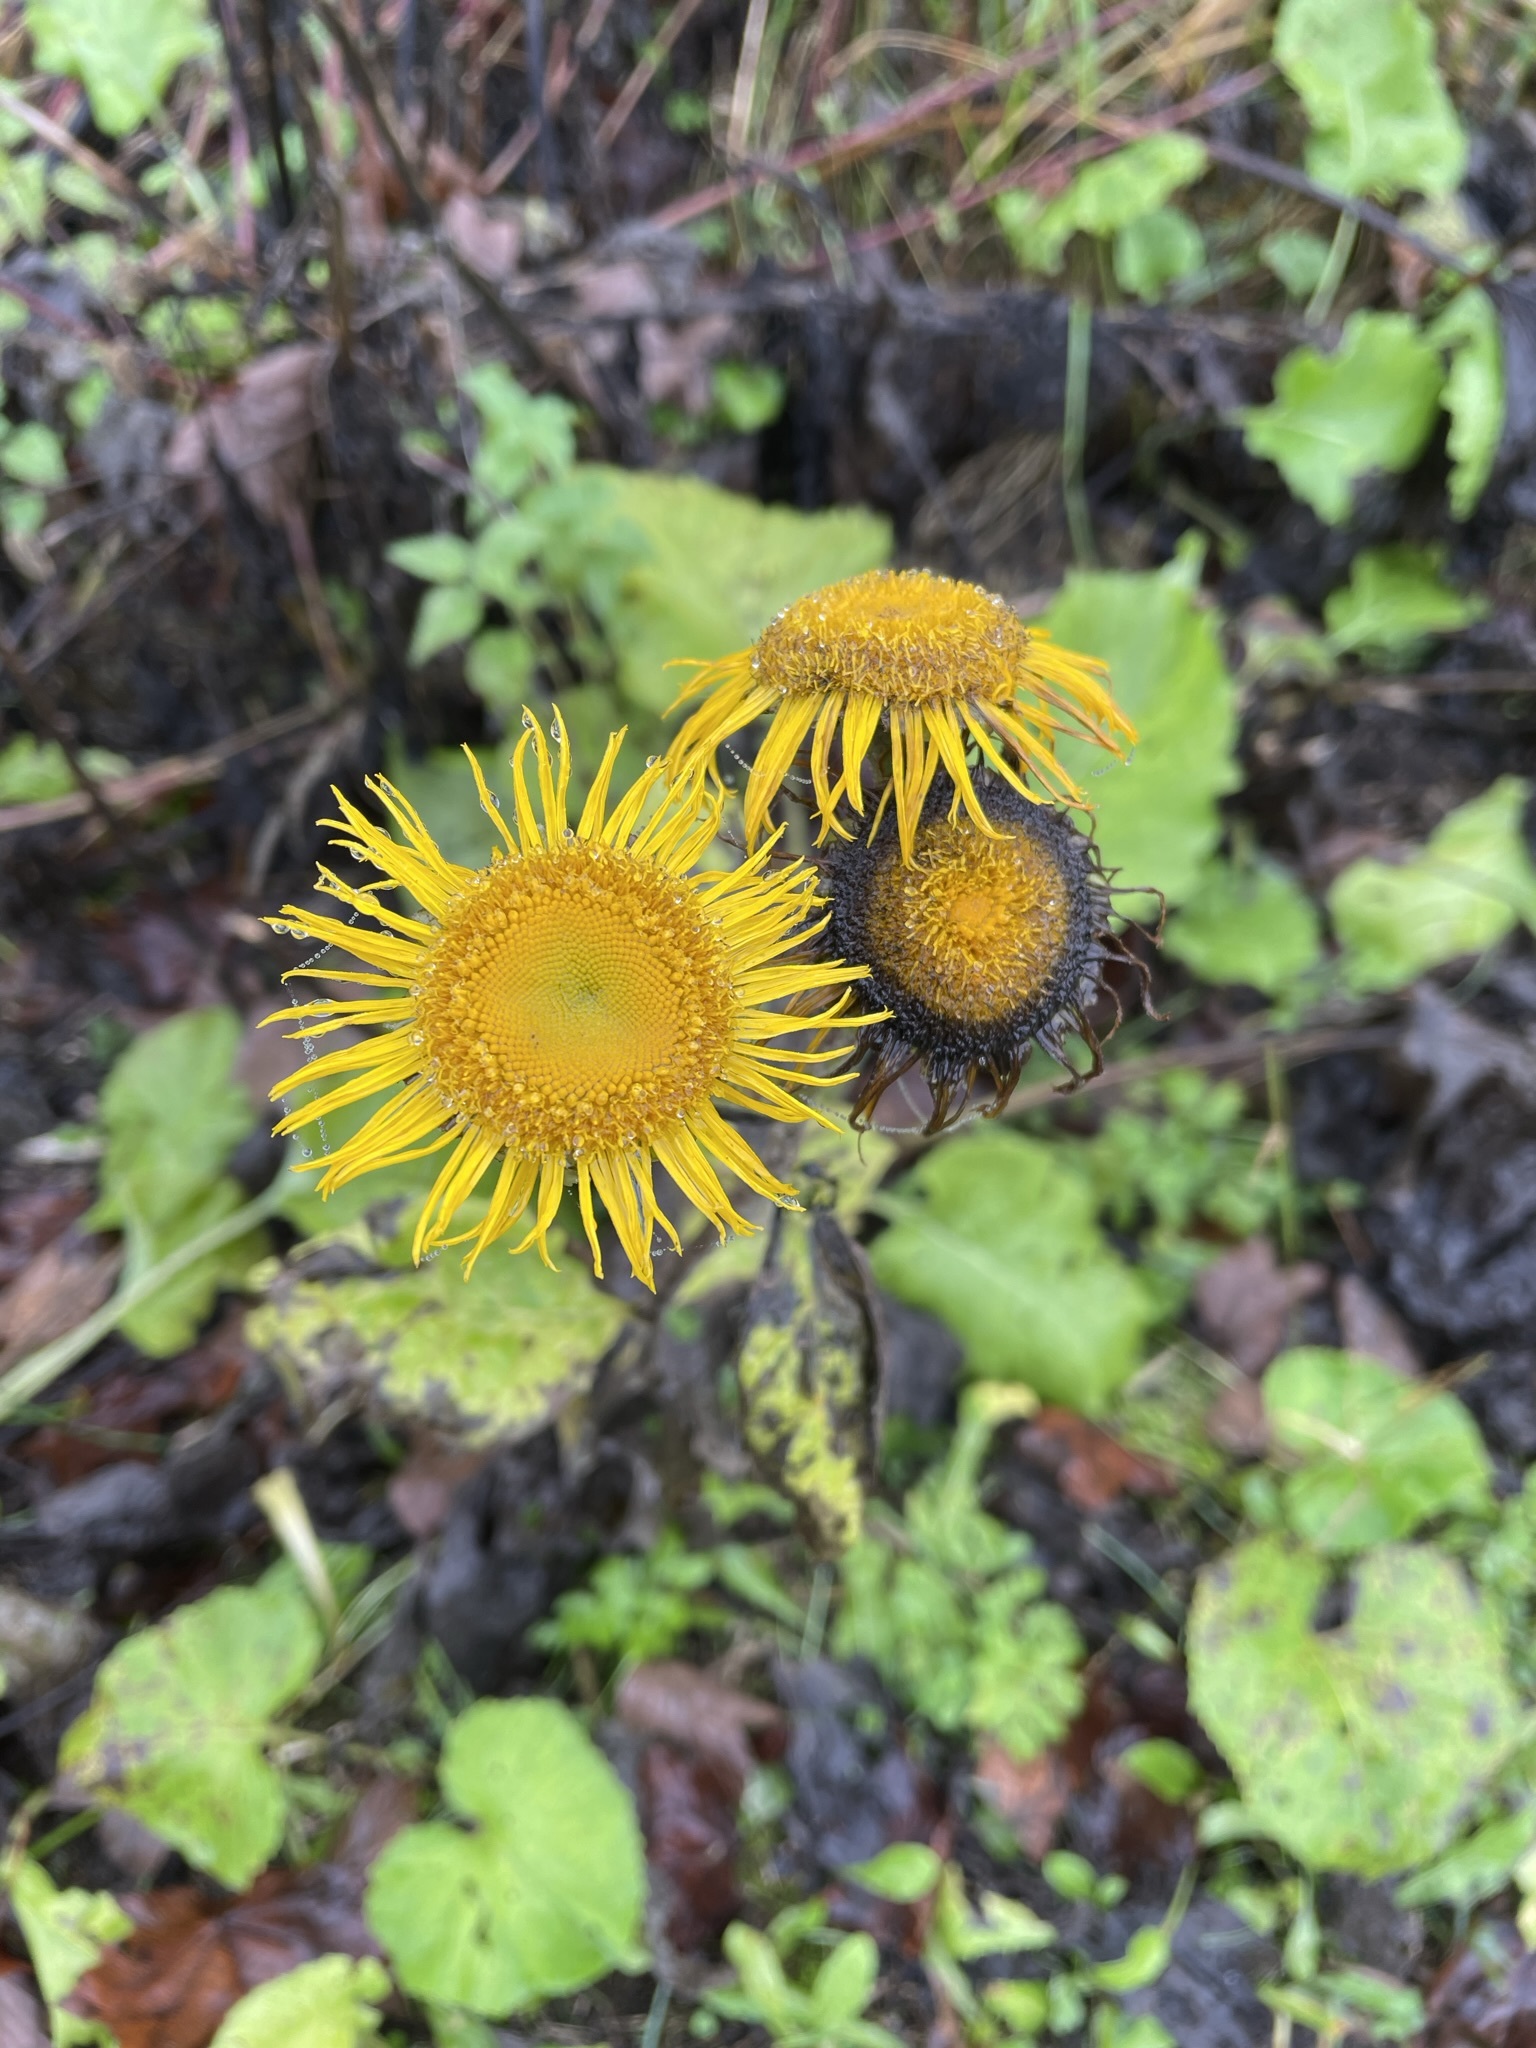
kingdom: Plantae
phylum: Tracheophyta
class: Magnoliopsida
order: Asterales
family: Asteraceae
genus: Telekia
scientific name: Telekia speciosa
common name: Yellow oxeye
